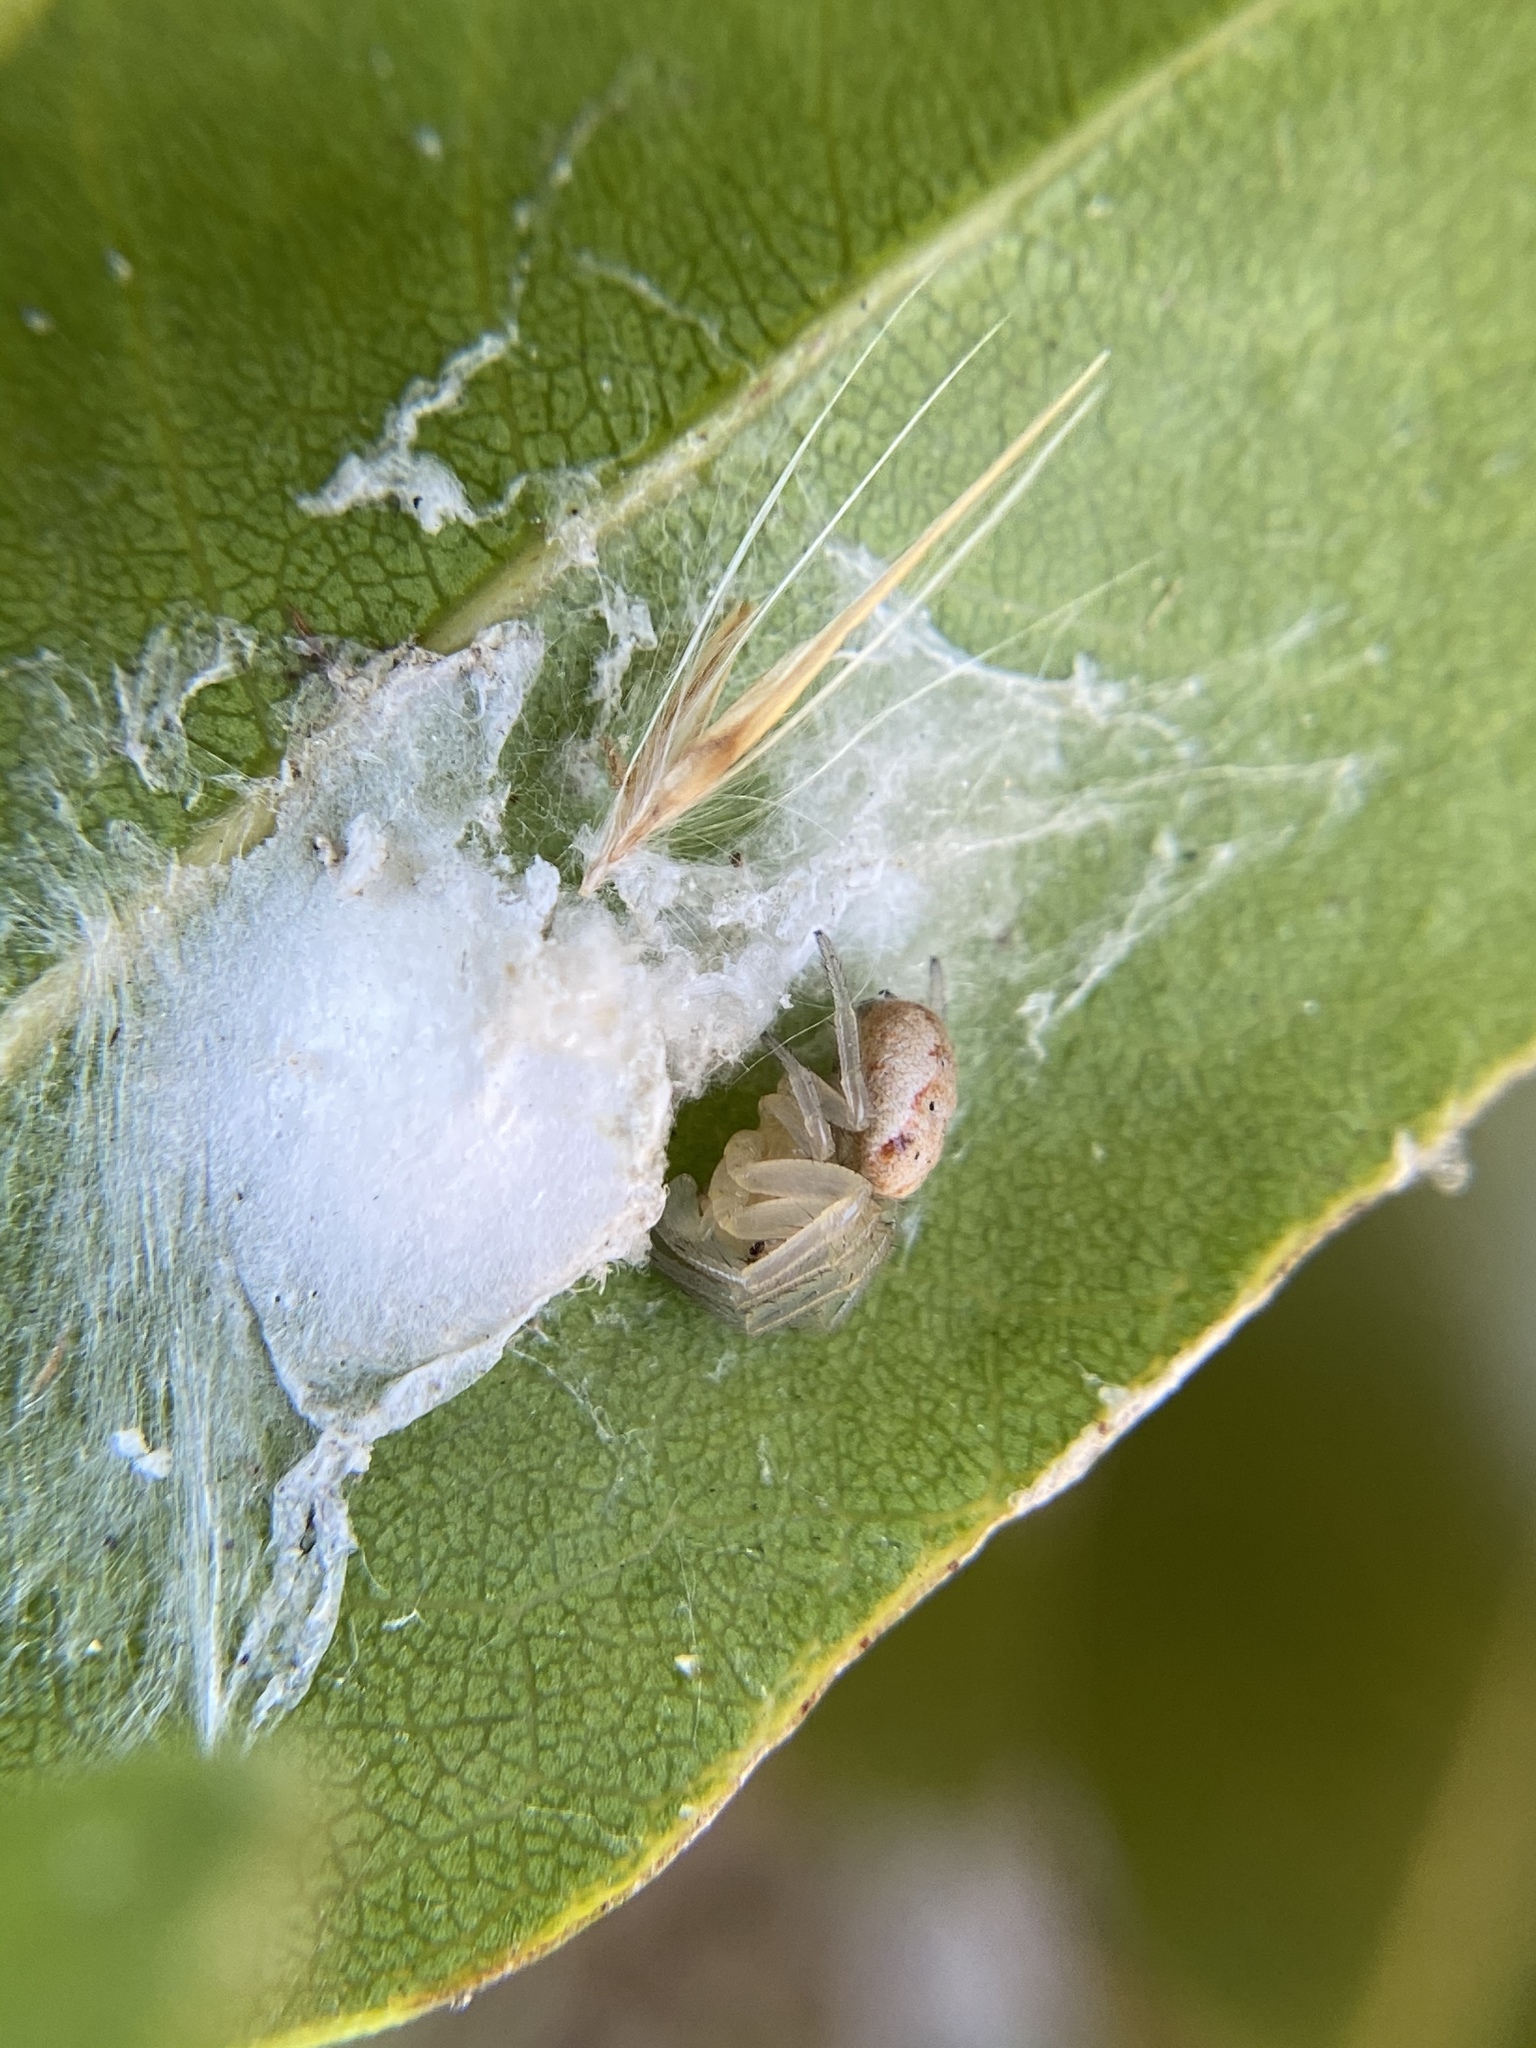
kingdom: Animalia
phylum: Arthropoda
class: Arachnida
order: Araneae
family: Araneidae
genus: Metazygia
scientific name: Metazygia wittfeldae
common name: Orb weavers
